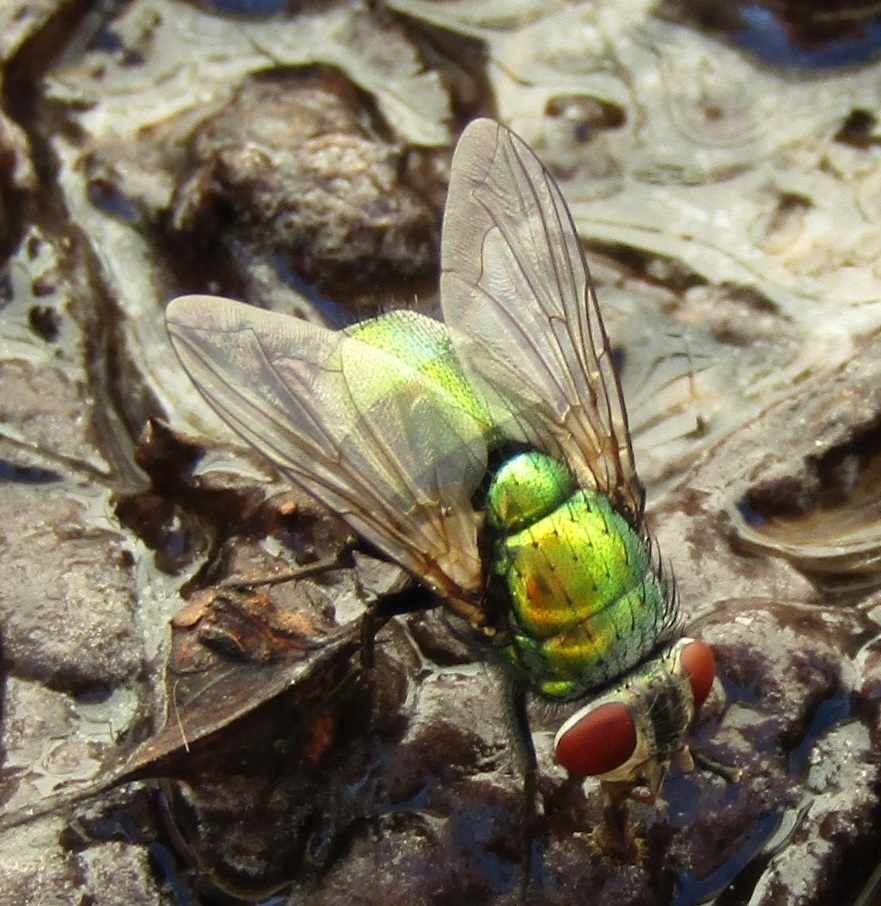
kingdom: Animalia
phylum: Arthropoda
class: Insecta
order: Diptera
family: Calliphoridae
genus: Lucilia
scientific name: Lucilia sericata
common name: Blow fly
